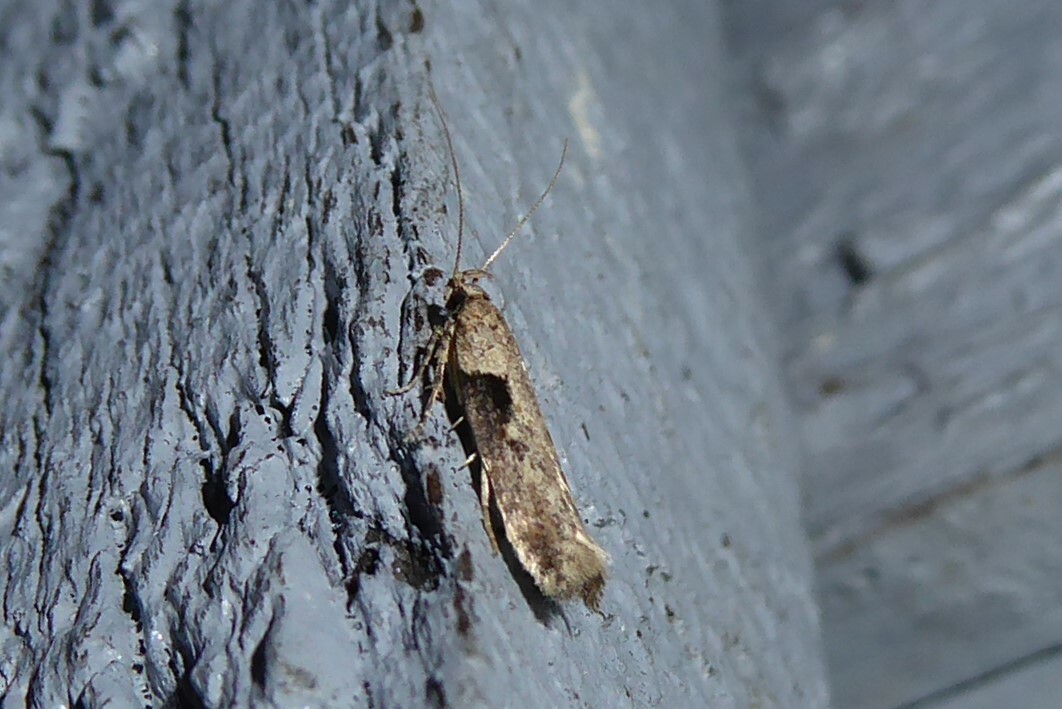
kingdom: Animalia
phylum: Arthropoda
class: Insecta
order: Lepidoptera
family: Gelechiidae
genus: Symmetrischema
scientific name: Symmetrischema tangolias
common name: Moth
